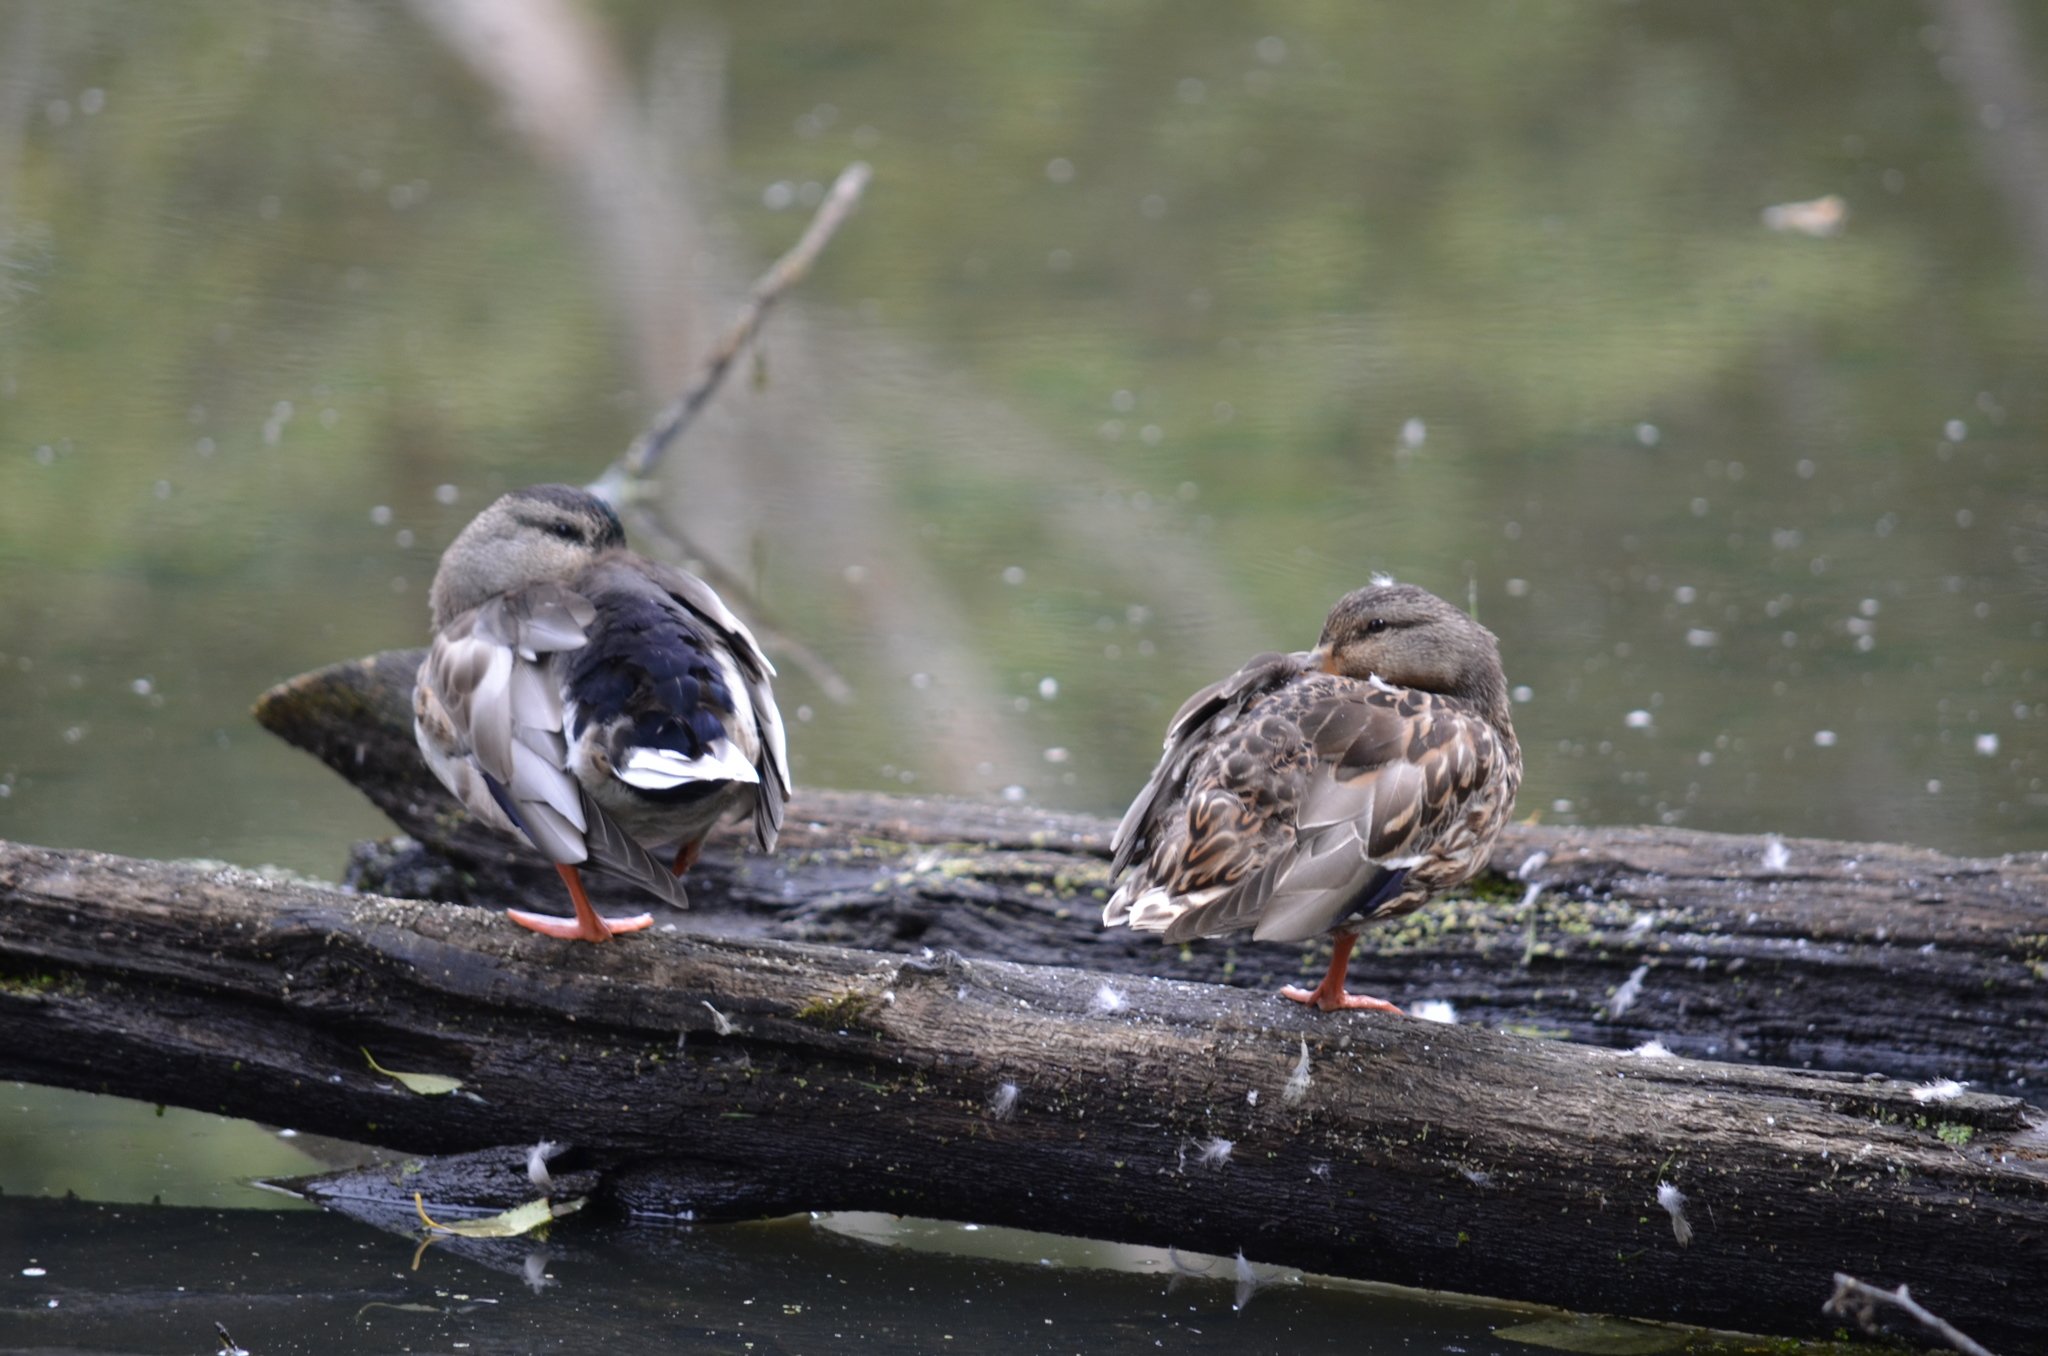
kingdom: Animalia
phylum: Chordata
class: Aves
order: Anseriformes
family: Anatidae
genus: Anas
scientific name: Anas platyrhynchos
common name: Mallard
